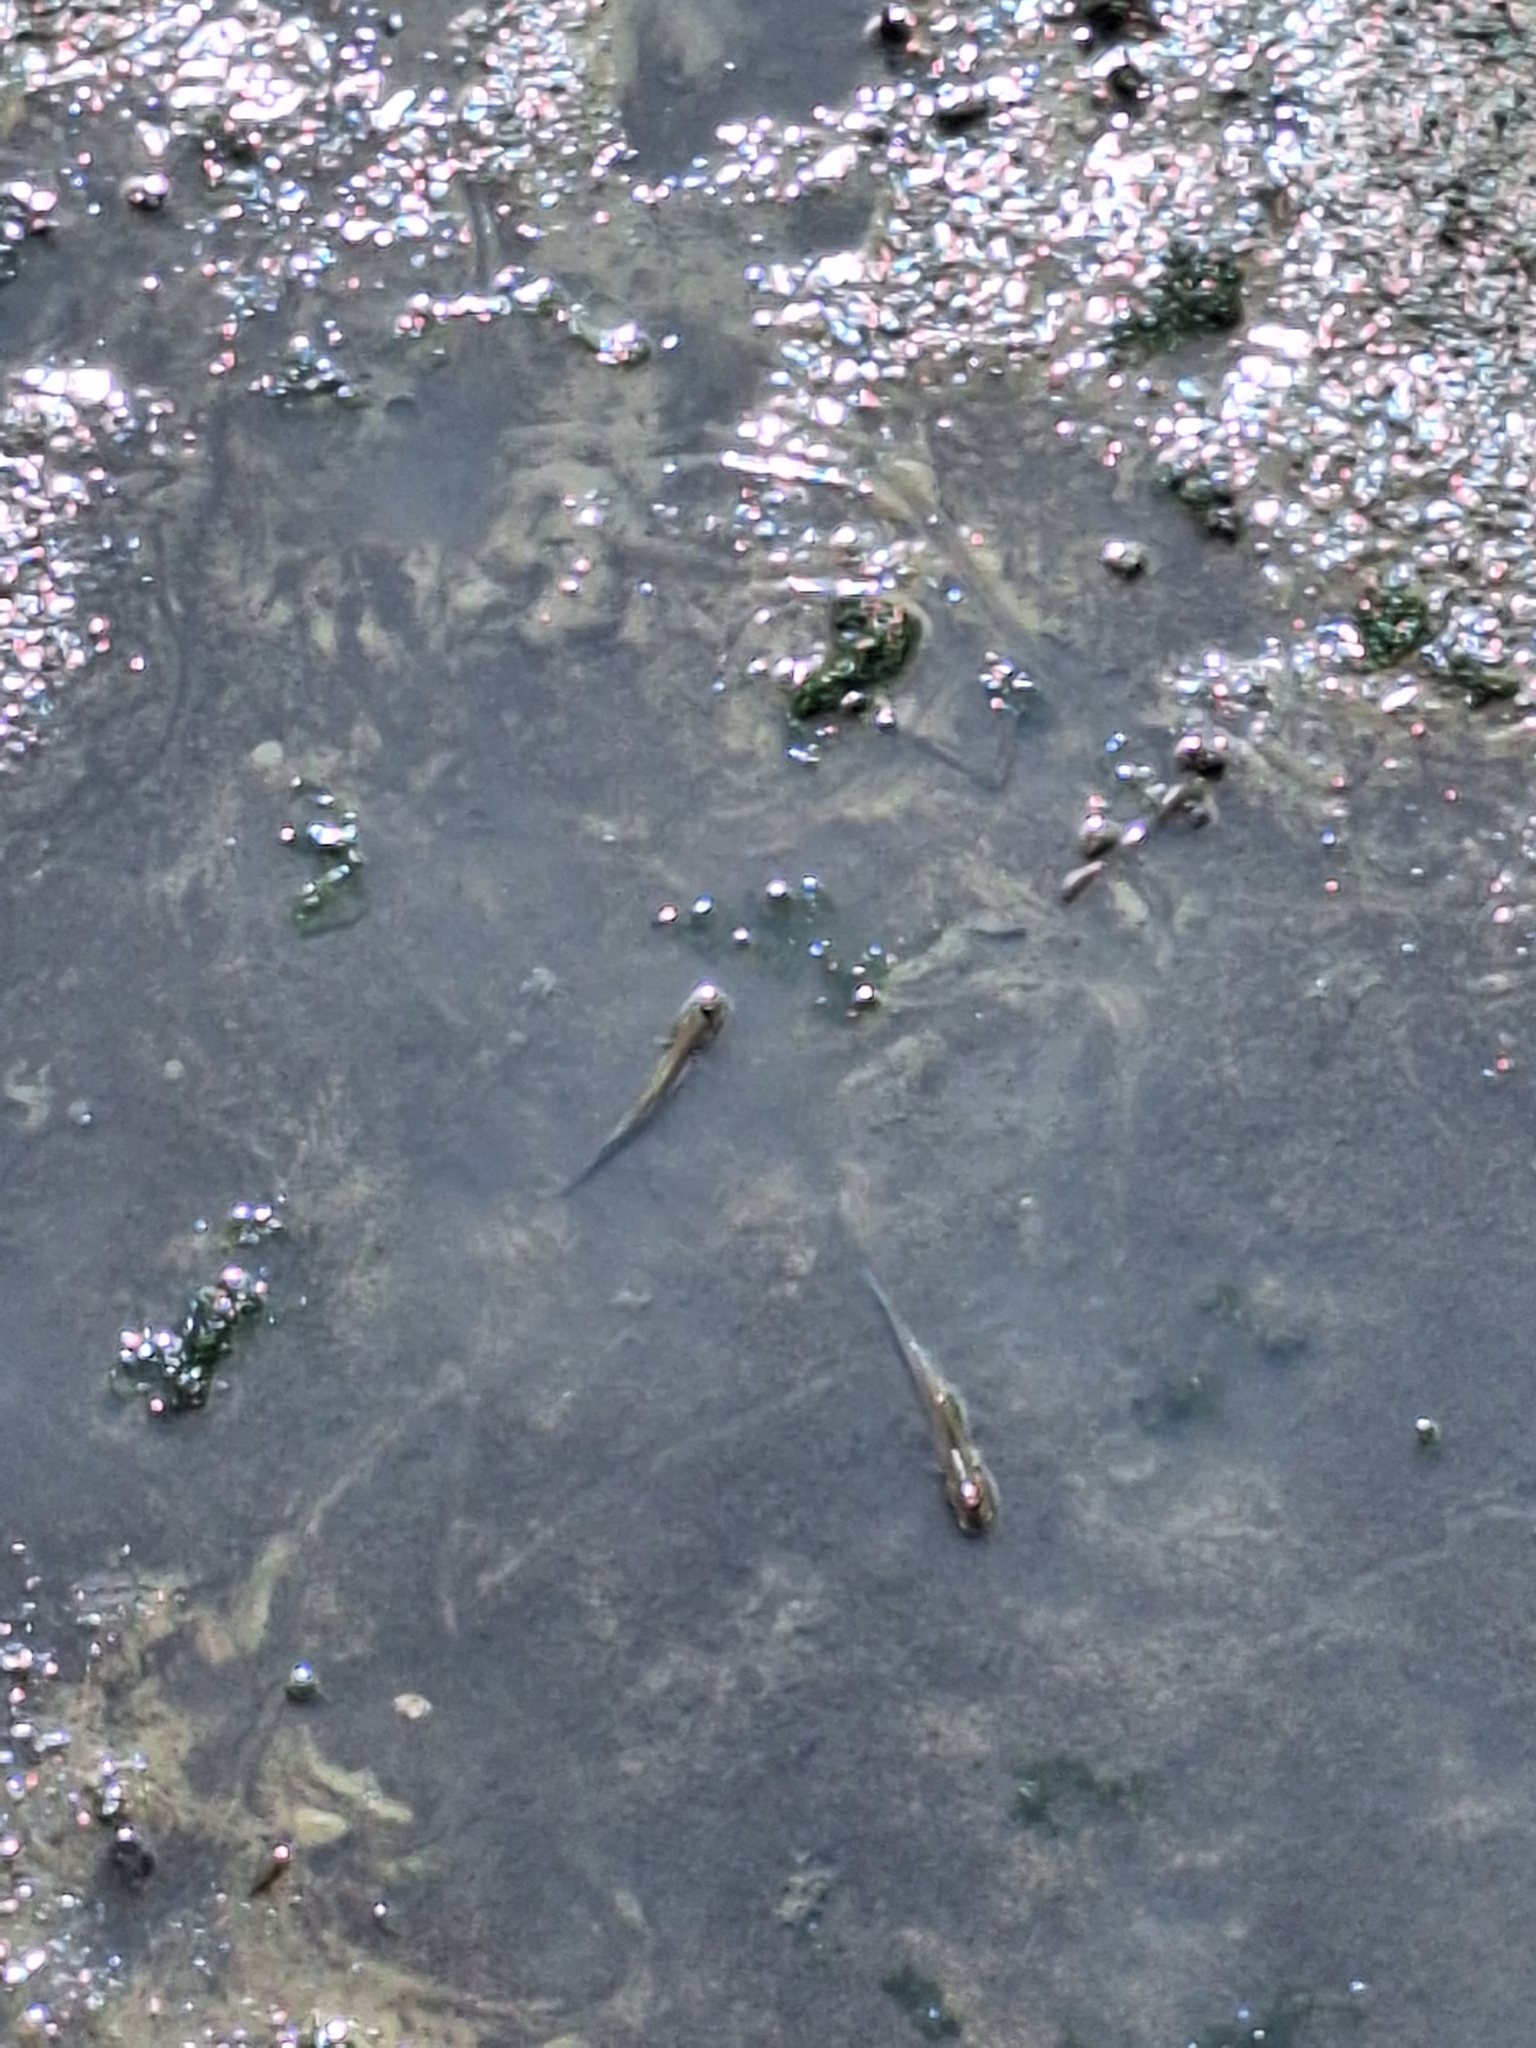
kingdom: Animalia
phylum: Chordata
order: Perciformes
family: Gobiidae
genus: Periophthalmodon
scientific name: Periophthalmodon schlosseri
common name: Giant mudskipper
